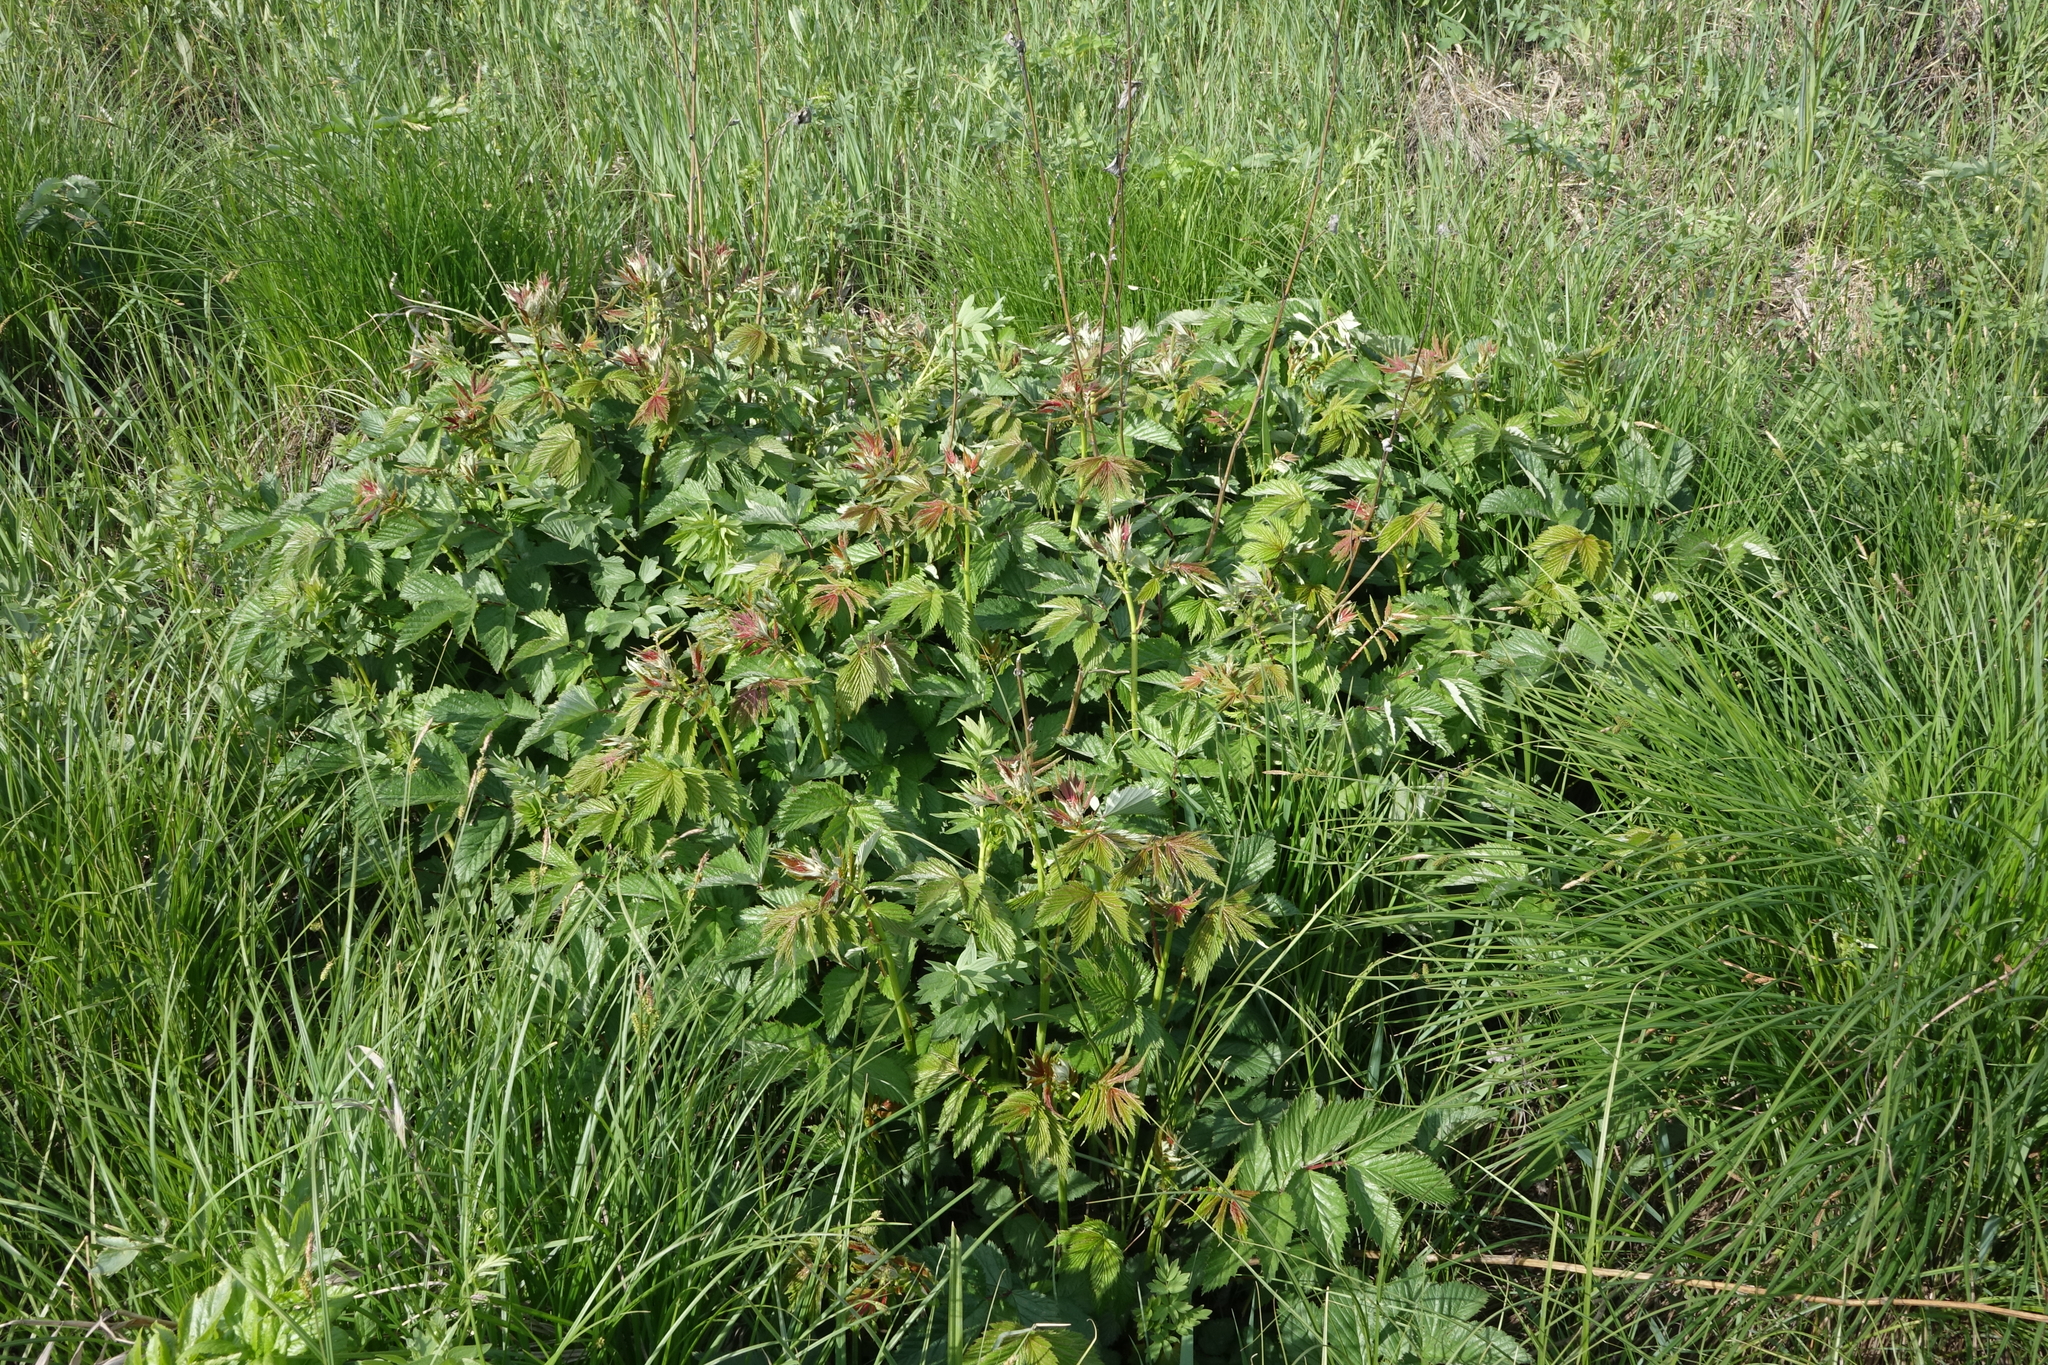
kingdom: Plantae
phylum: Tracheophyta
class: Magnoliopsida
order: Rosales
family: Rosaceae
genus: Filipendula
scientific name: Filipendula ulmaria
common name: Meadowsweet
